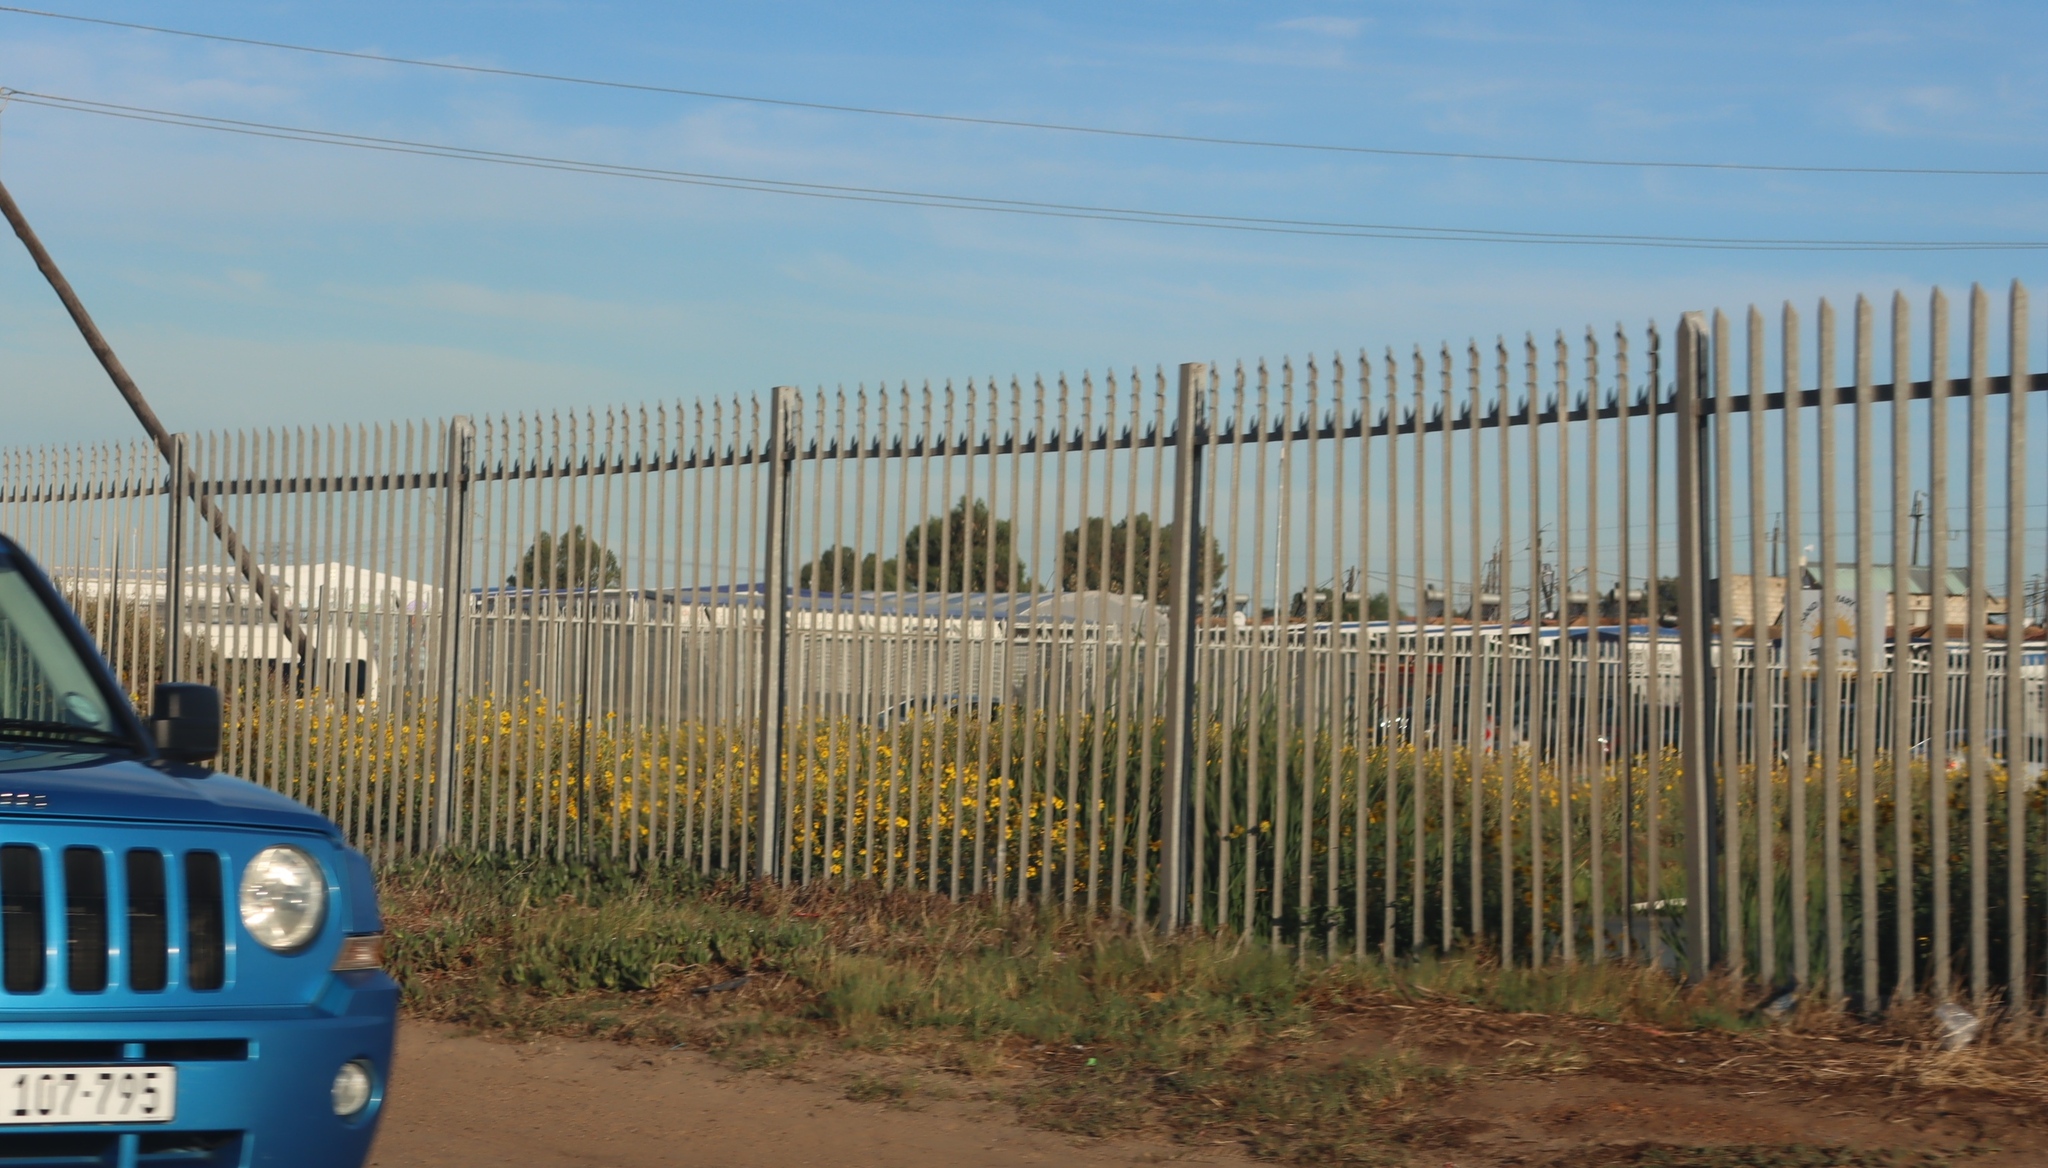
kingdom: Plantae
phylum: Tracheophyta
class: Magnoliopsida
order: Asterales
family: Asteraceae
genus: Verbesina
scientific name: Verbesina encelioides
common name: Golden crownbeard
